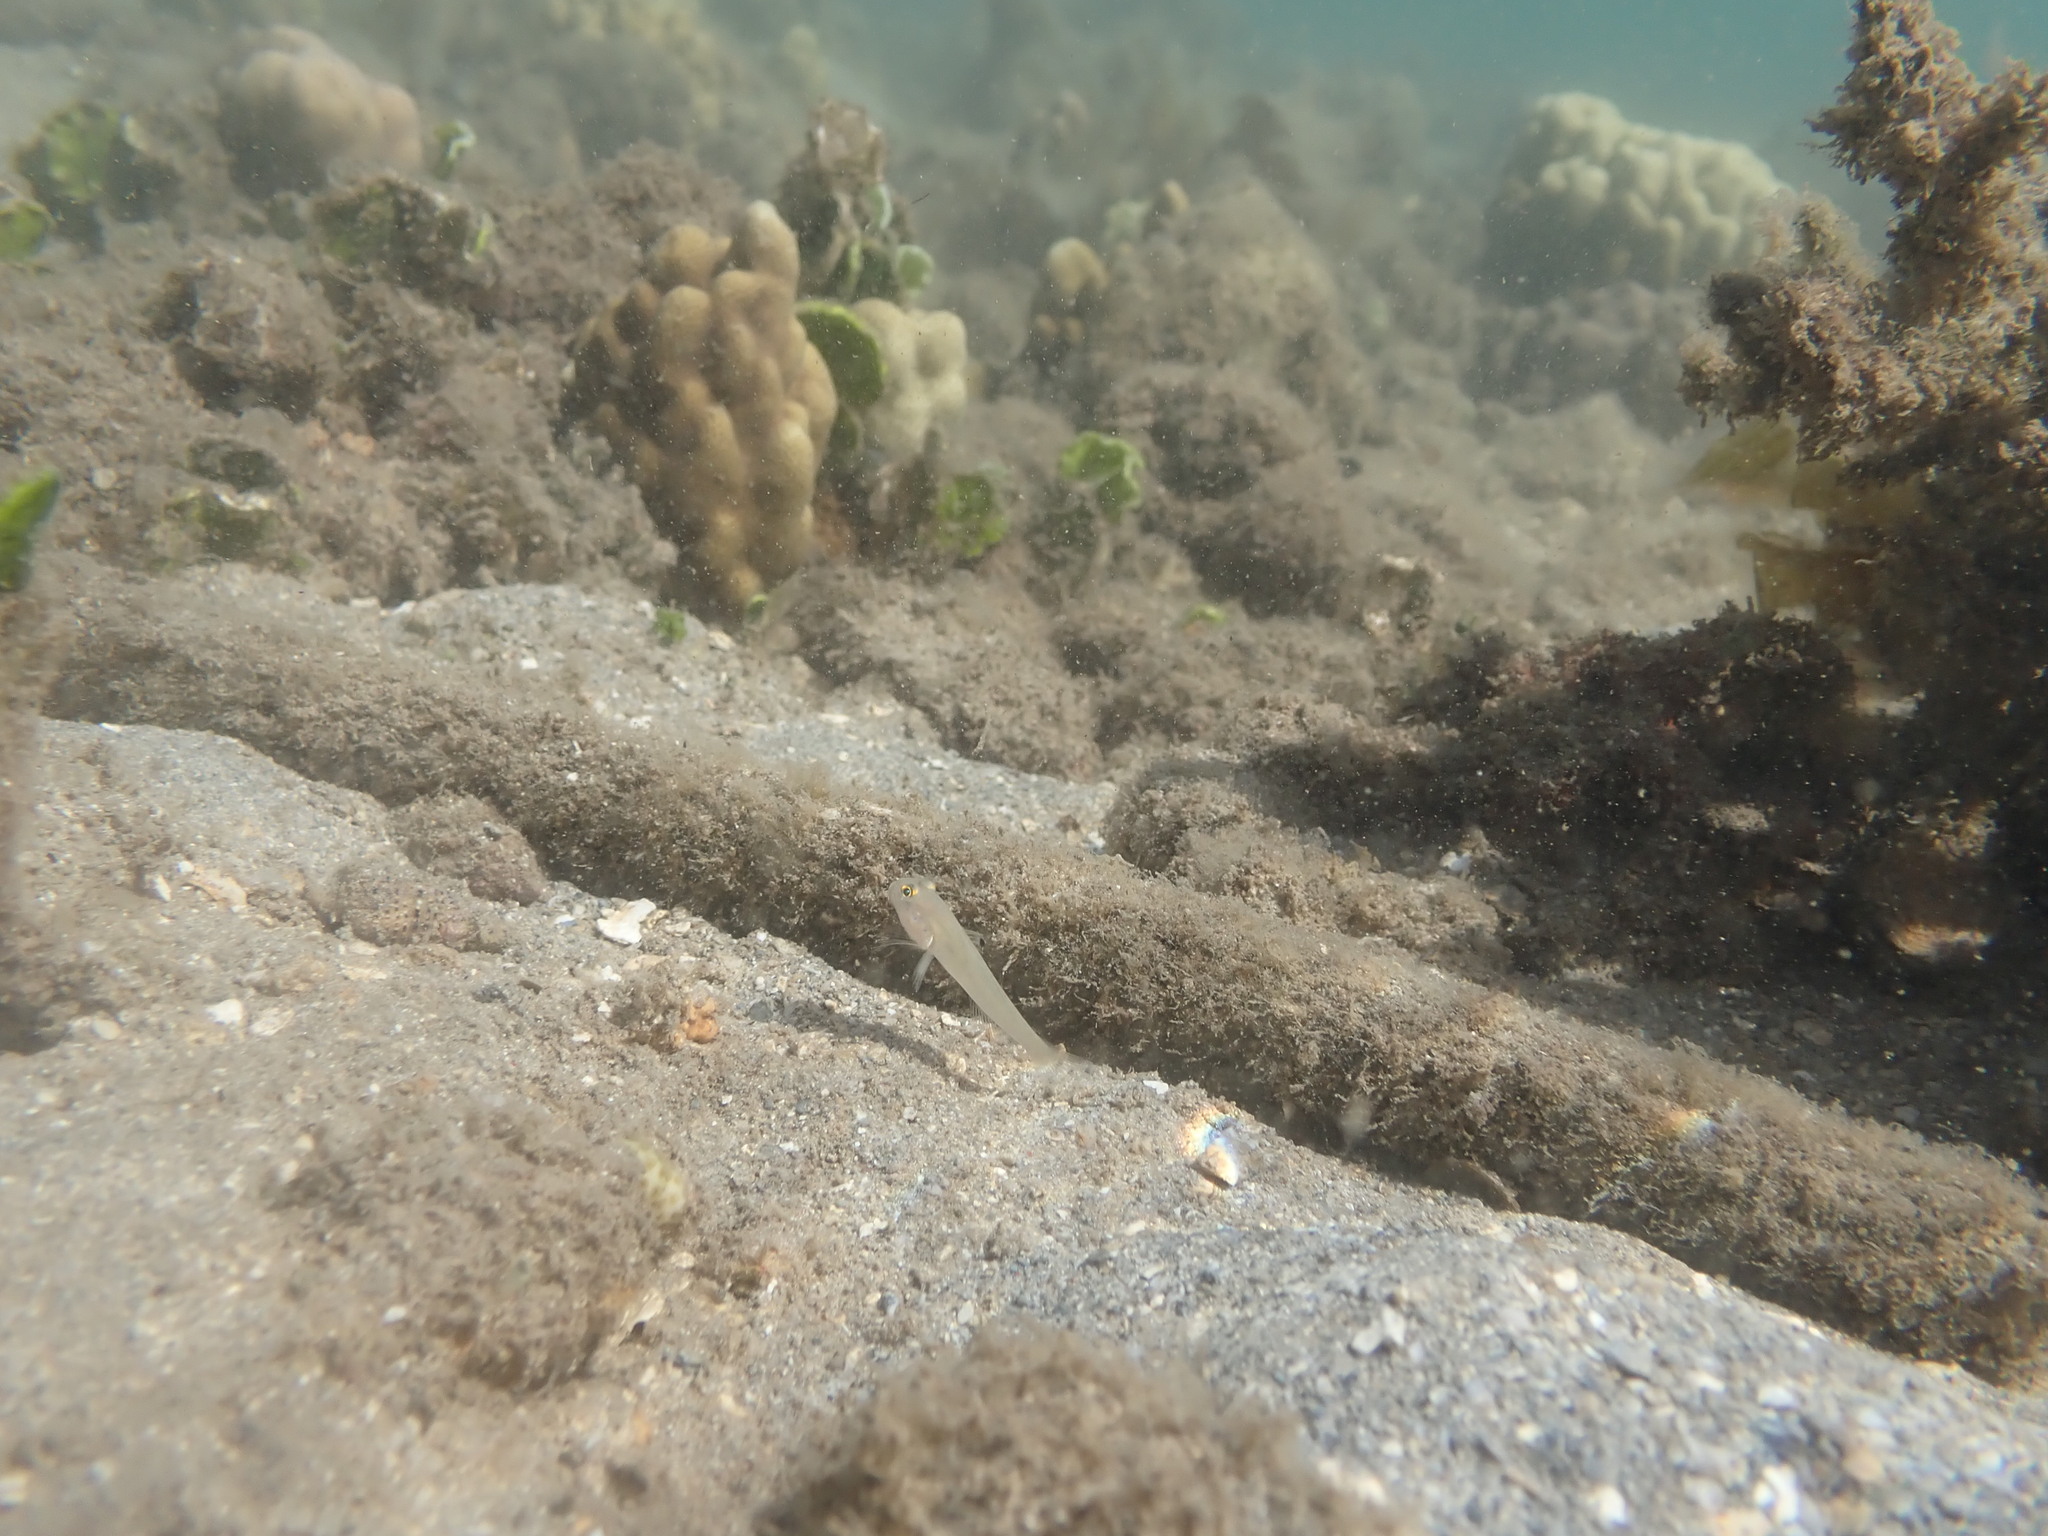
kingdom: Animalia
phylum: Chordata
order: Perciformes
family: Gobiidae
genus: Valenciennea
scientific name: Valenciennea sexguttata
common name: Sixspot goby
